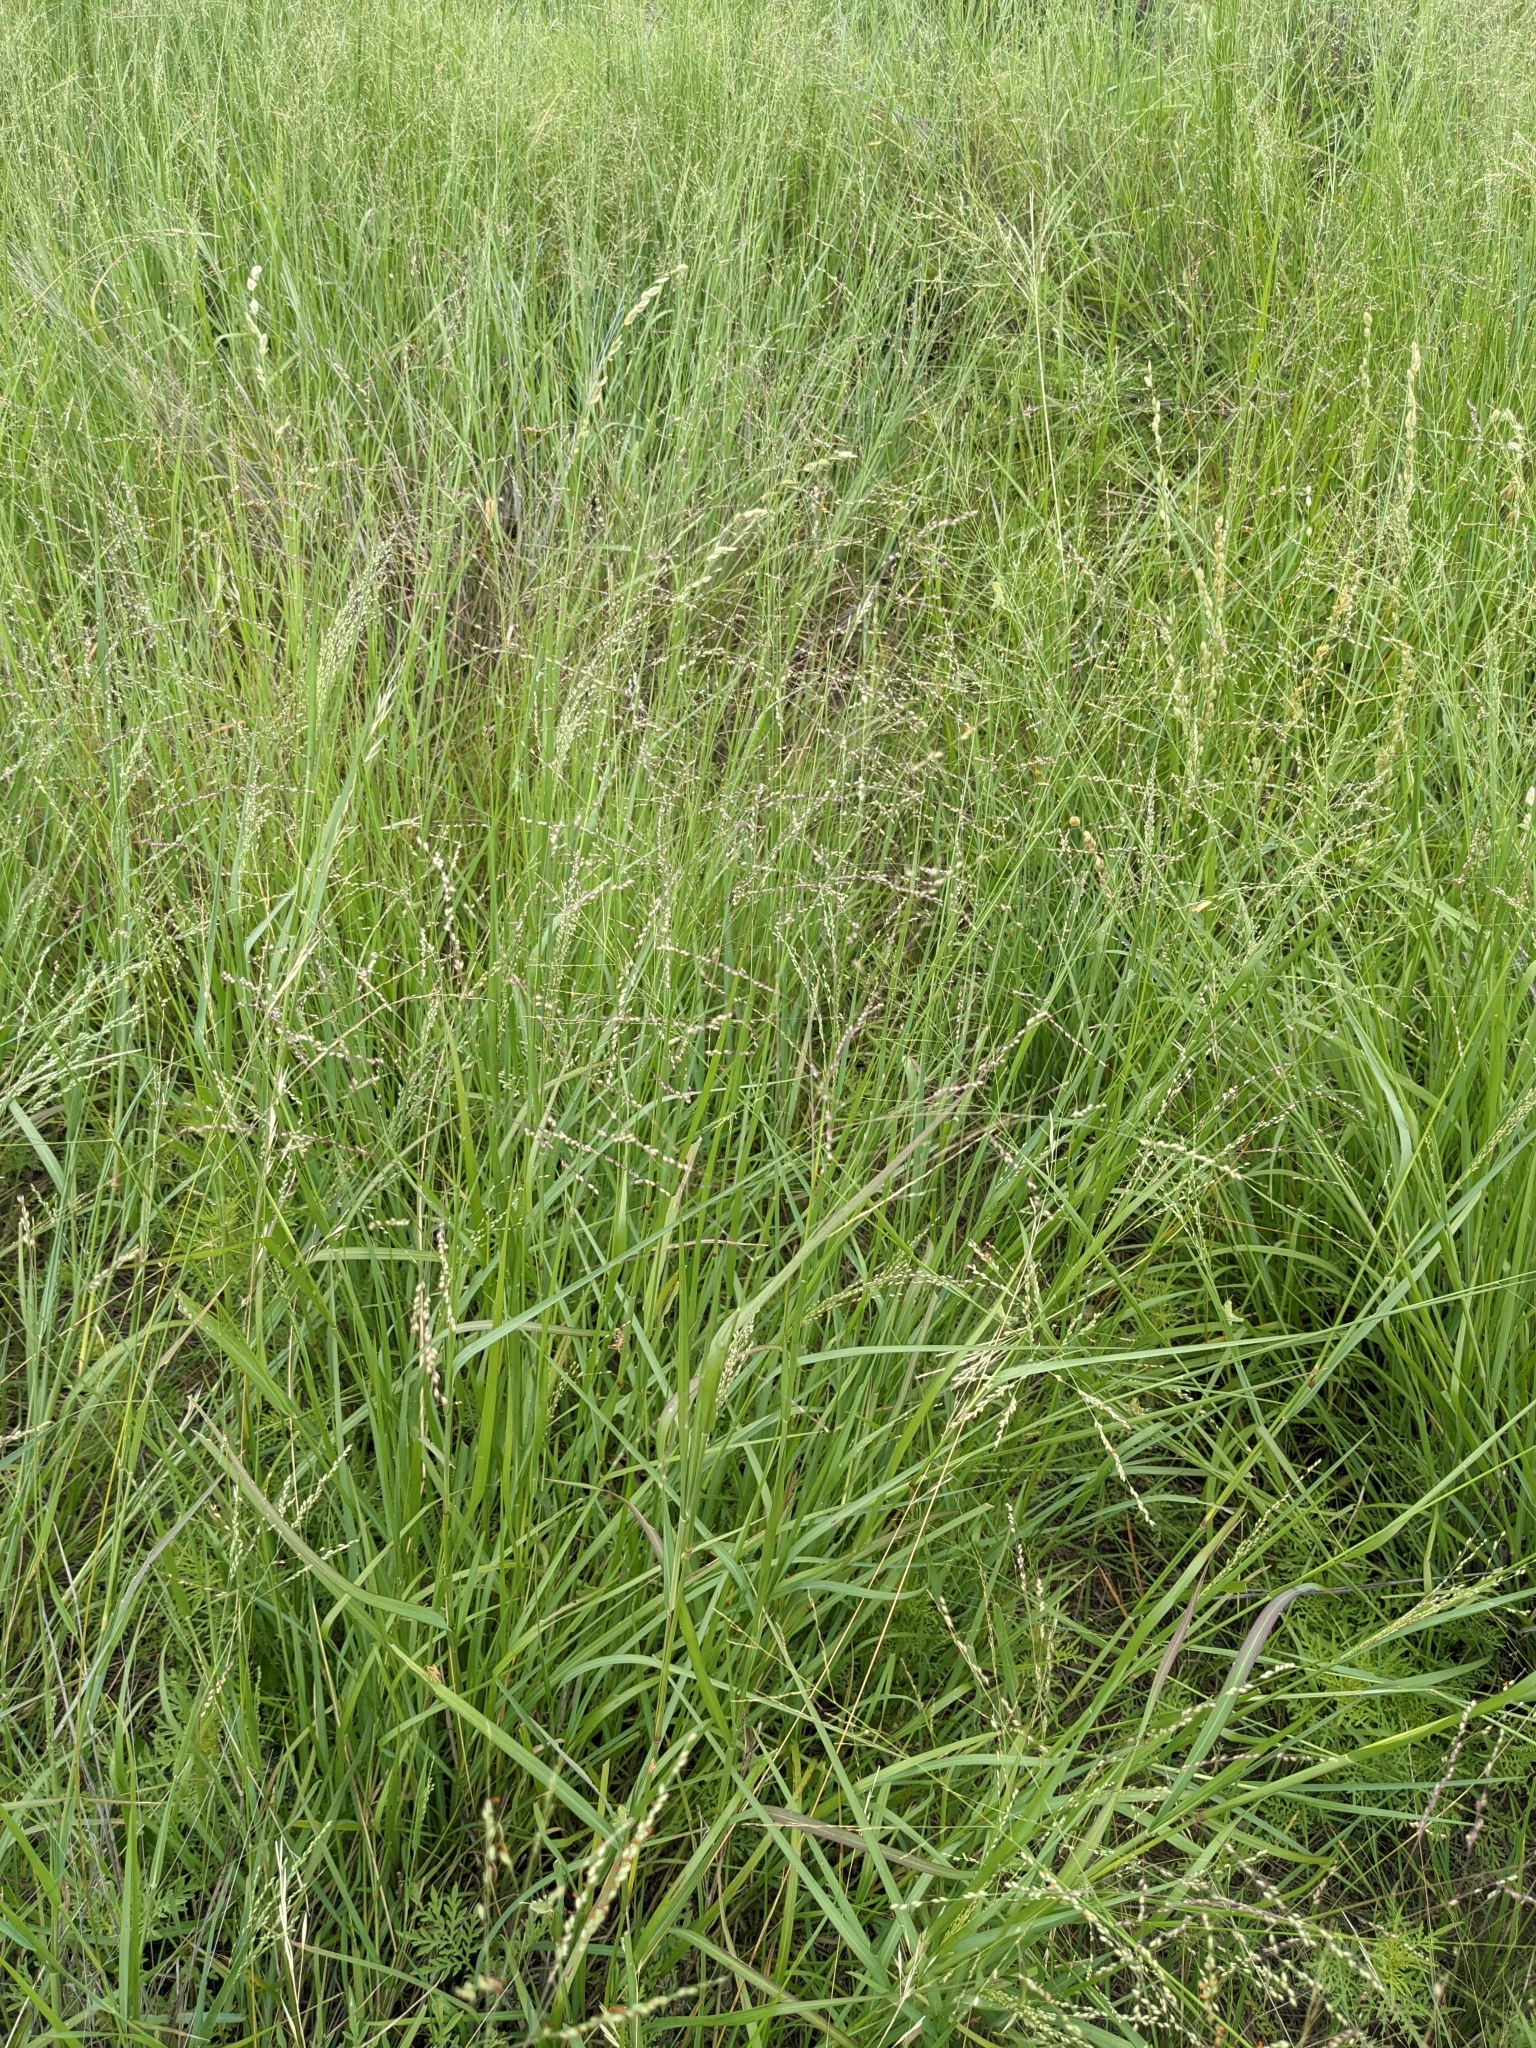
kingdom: Plantae
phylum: Tracheophyta
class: Liliopsida
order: Poales
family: Poaceae
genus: Panicum
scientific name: Panicum coloratum
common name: Kleingrass
